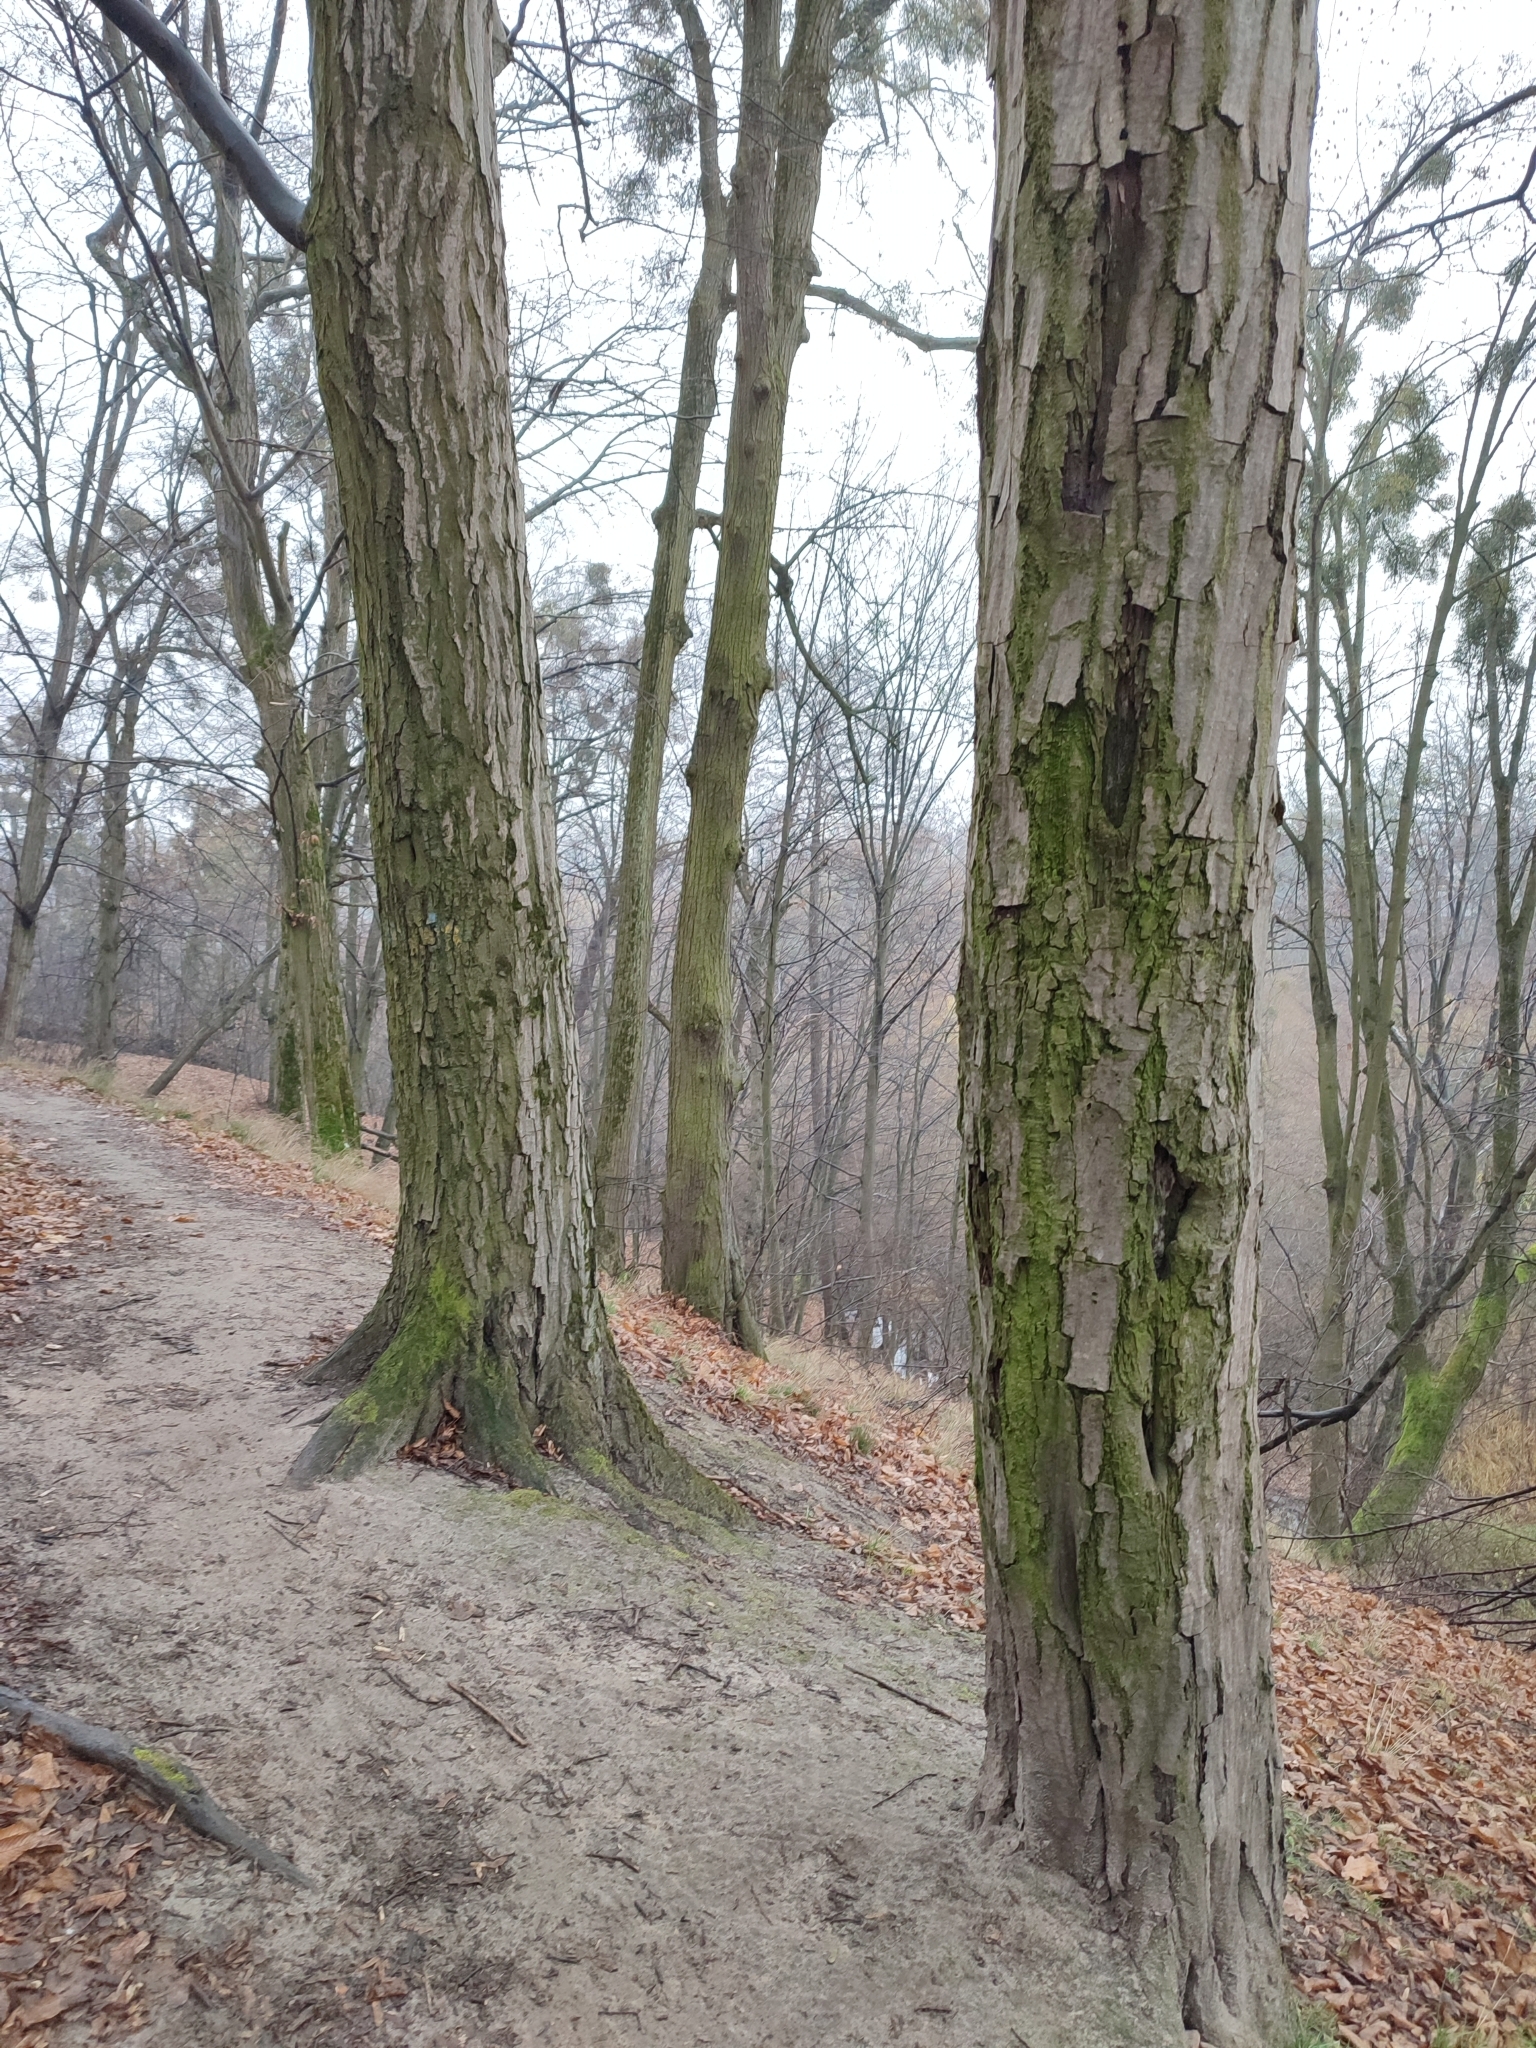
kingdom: Plantae
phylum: Tracheophyta
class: Magnoliopsida
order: Fagales
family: Betulaceae
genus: Carpinus
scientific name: Carpinus betulus
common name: Hornbeam
